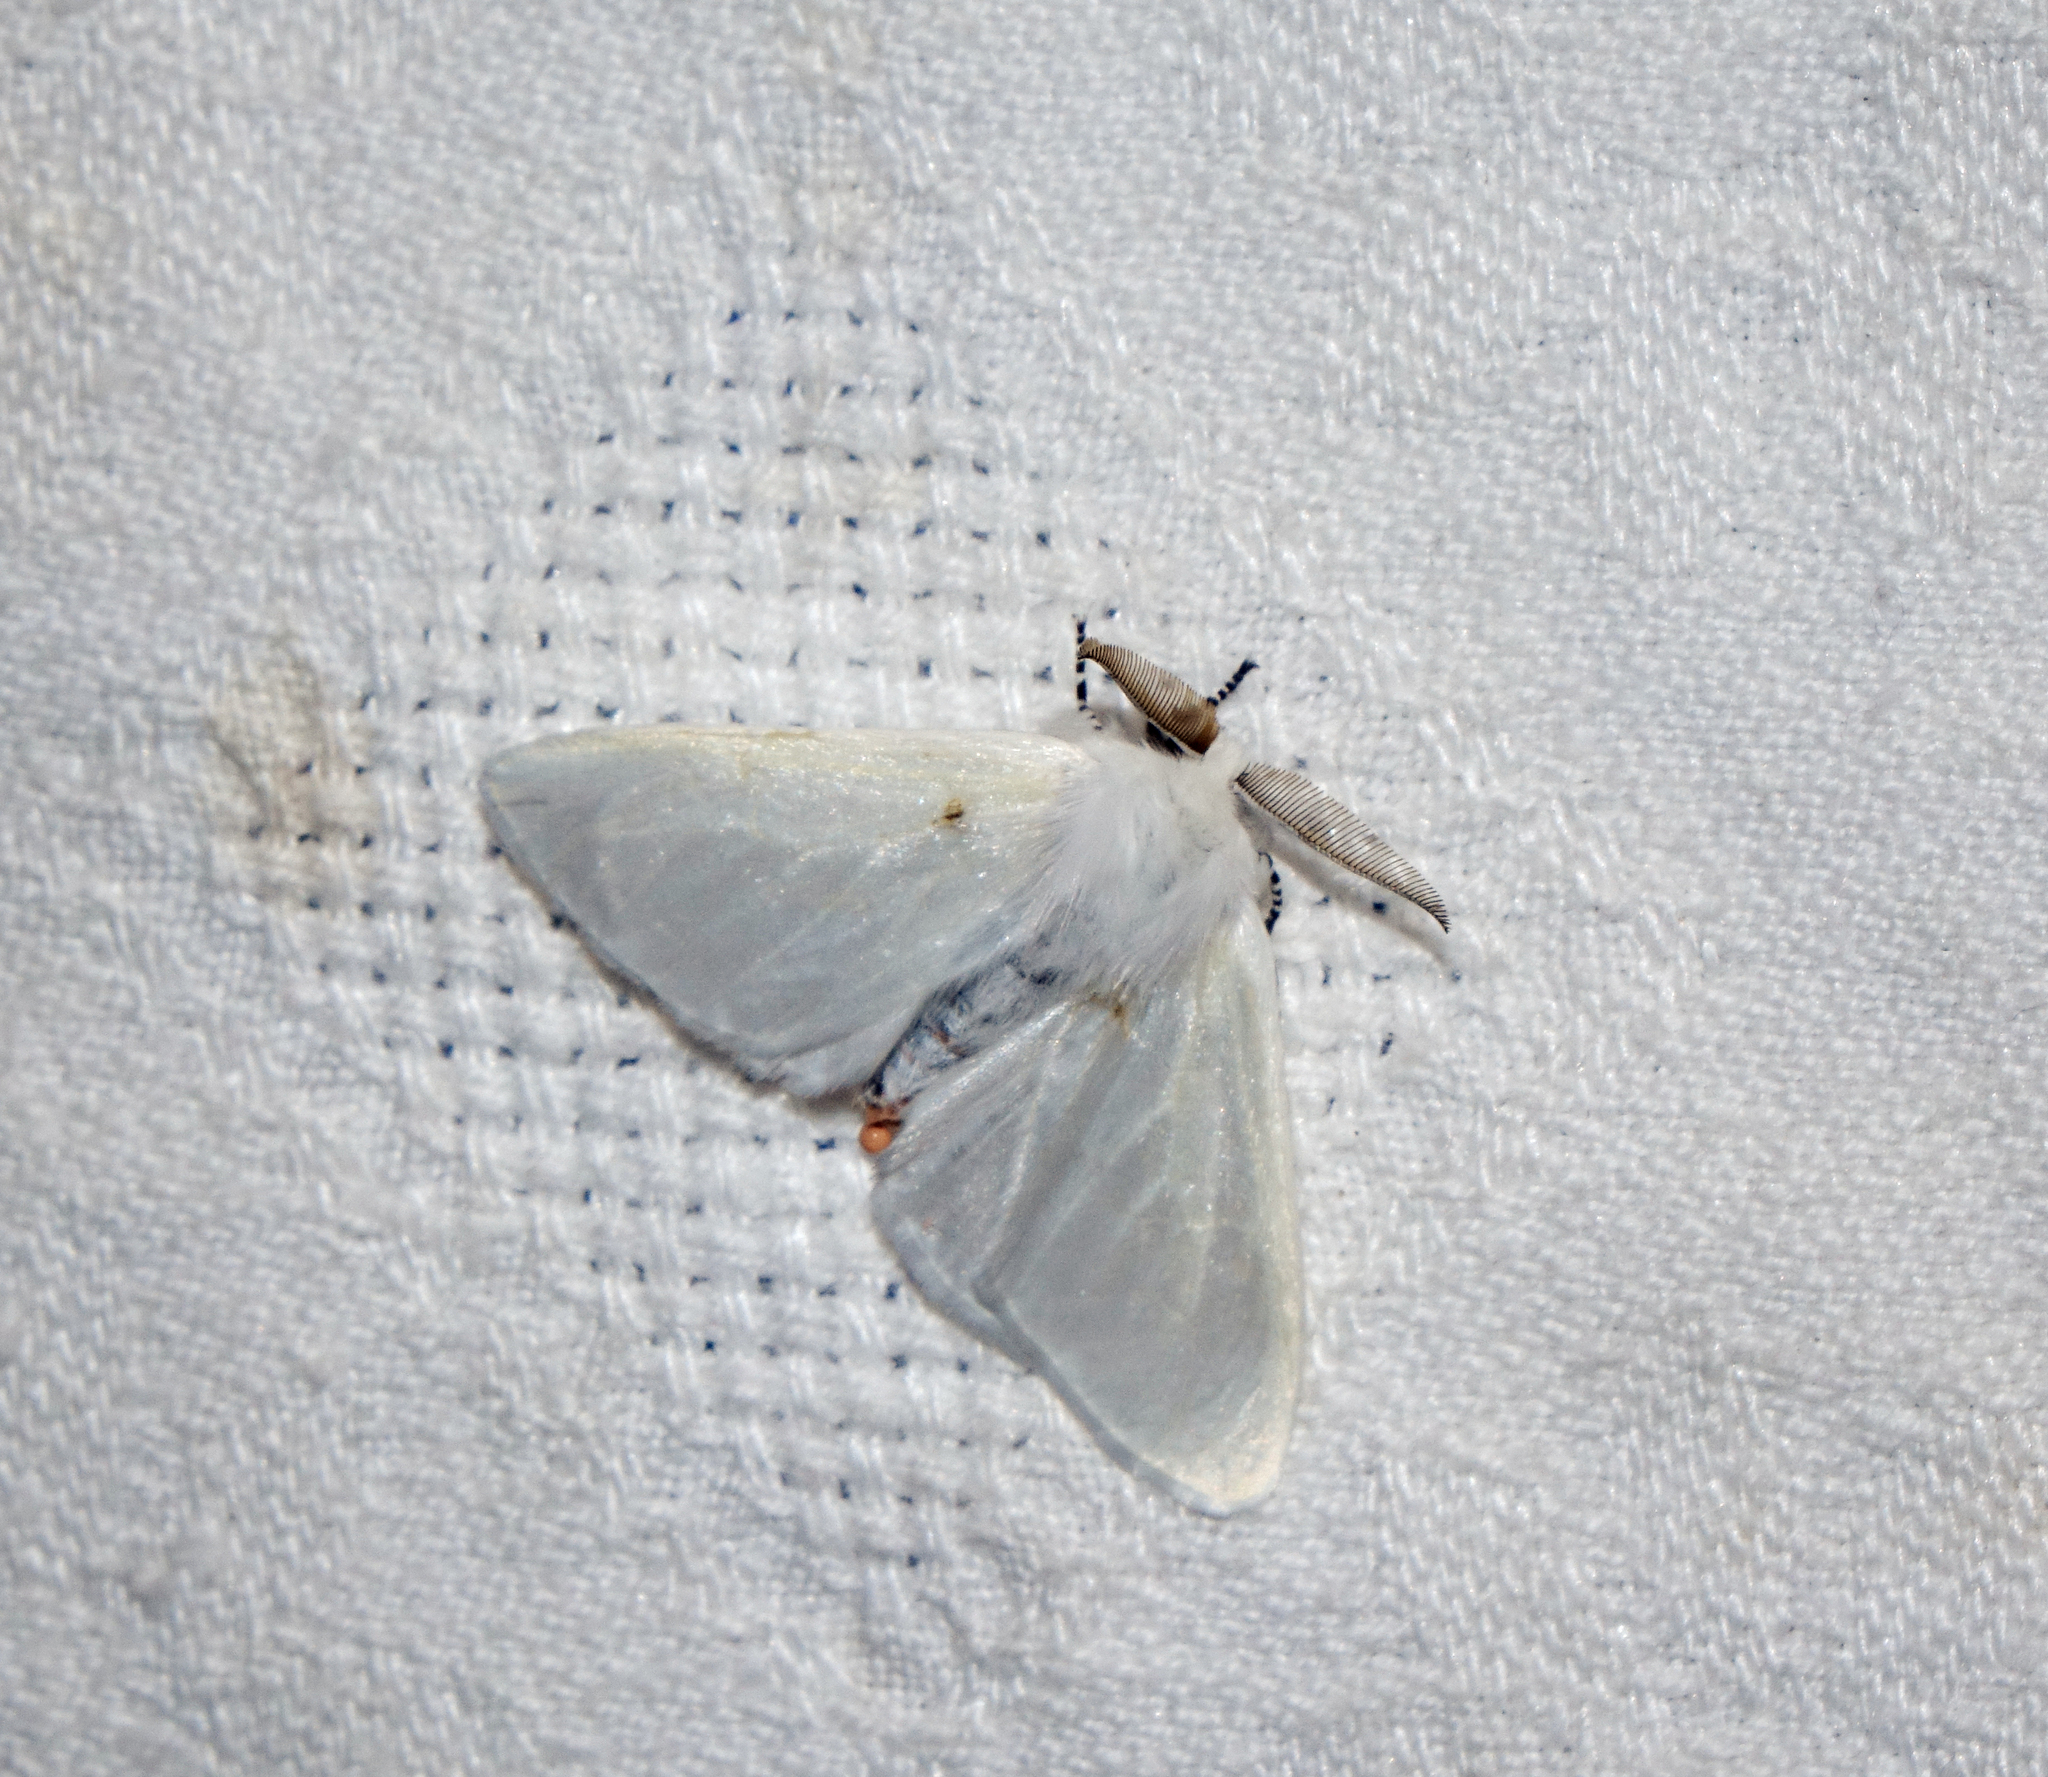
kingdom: Animalia
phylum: Arthropoda
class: Insecta
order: Lepidoptera
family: Erebidae
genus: Leucoma
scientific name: Leucoma salicis
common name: White satin moth
